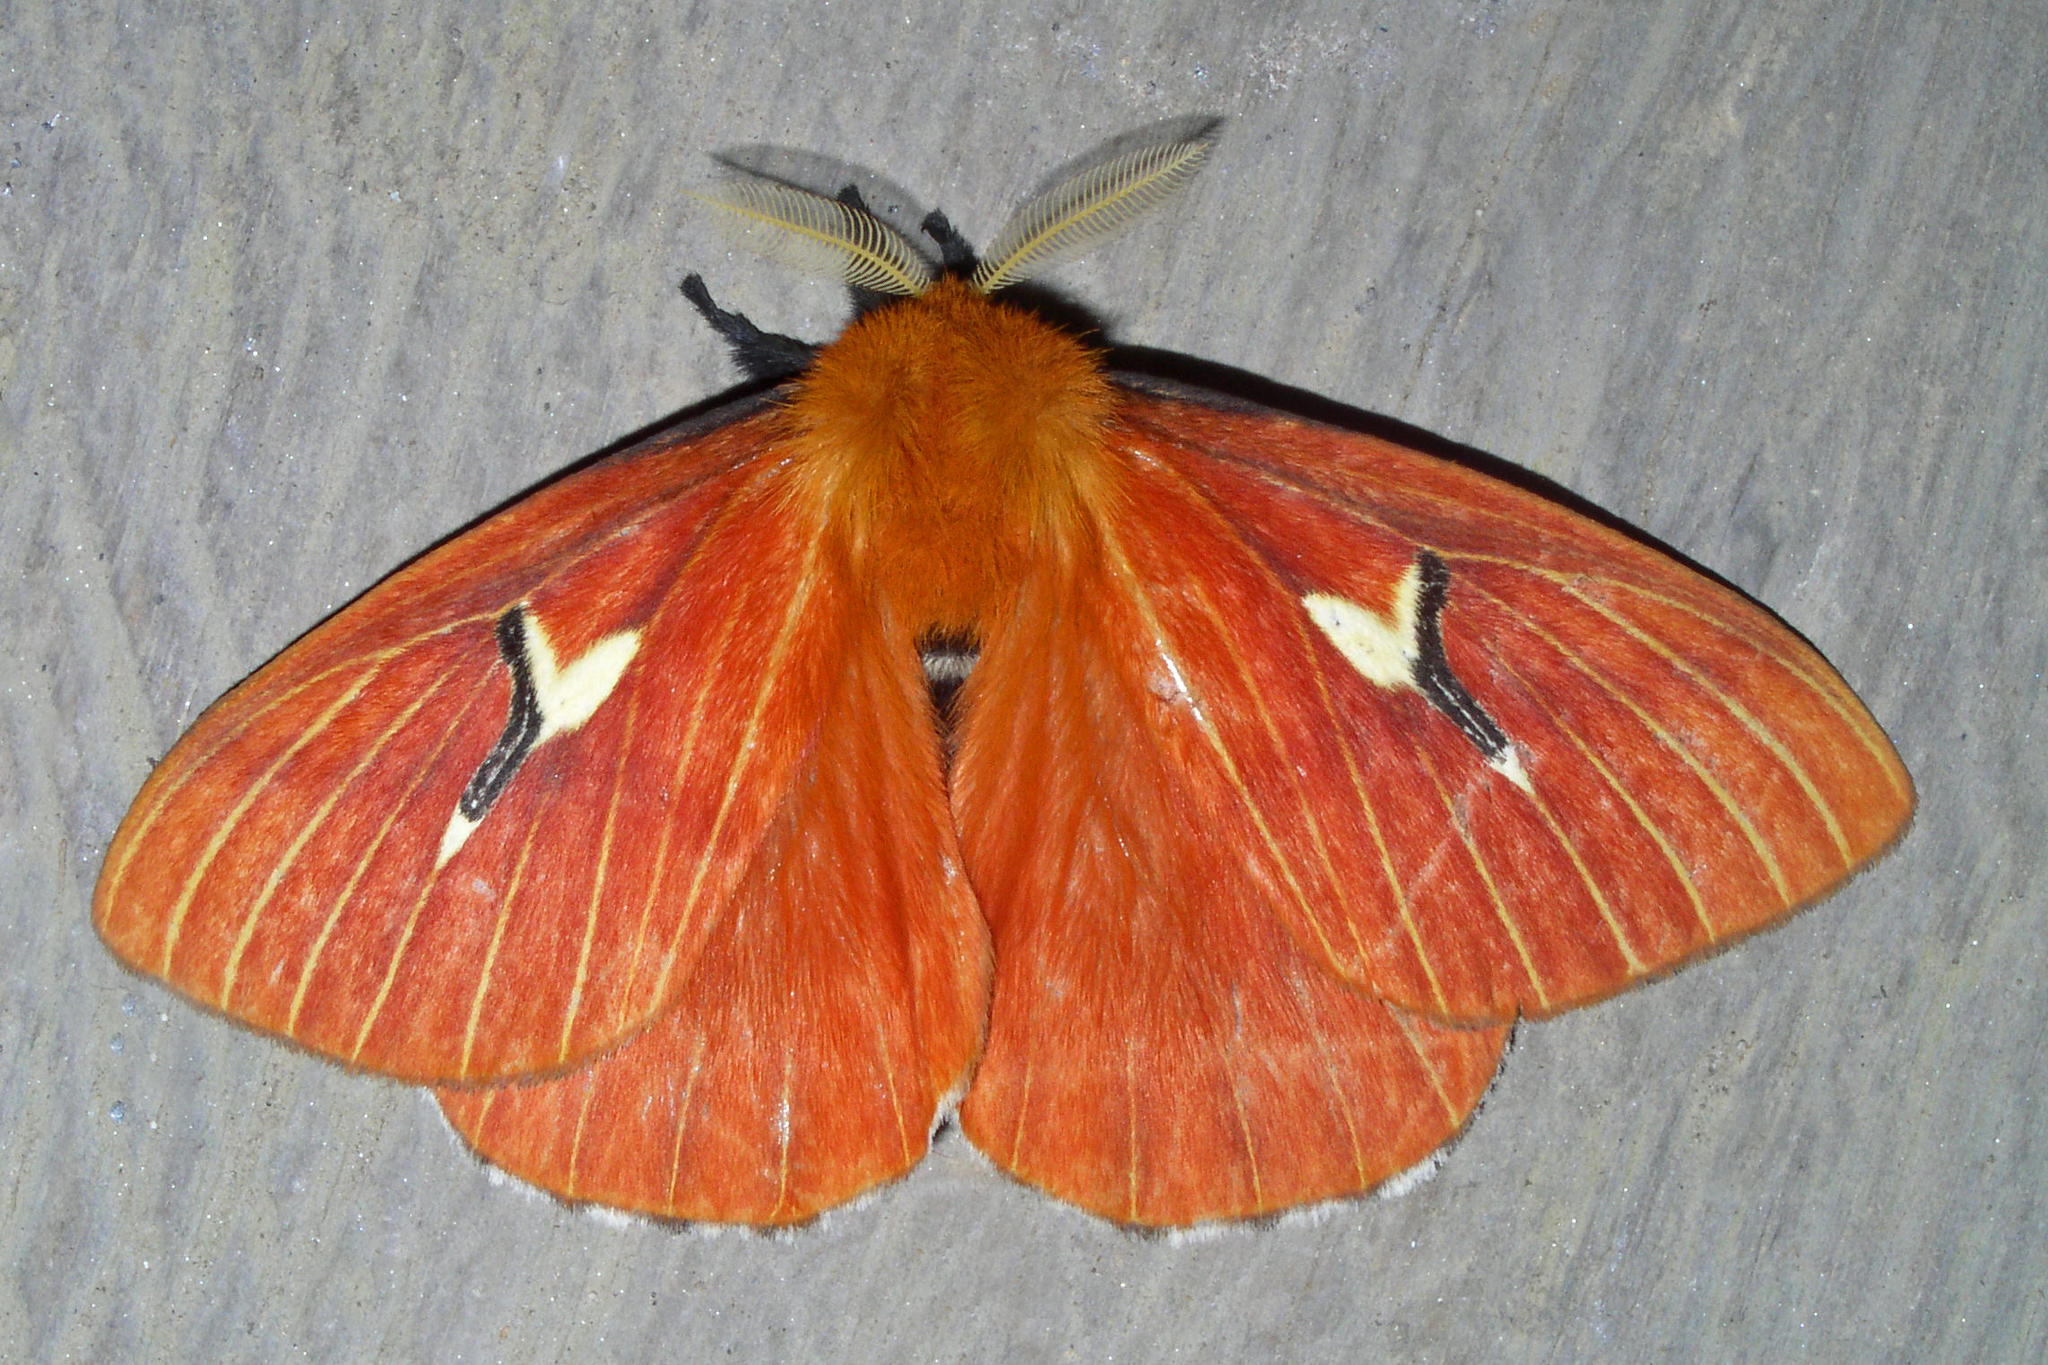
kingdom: Animalia
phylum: Arthropoda
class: Insecta
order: Lepidoptera
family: Saturniidae
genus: Cerodirphia
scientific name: Cerodirphia mota
